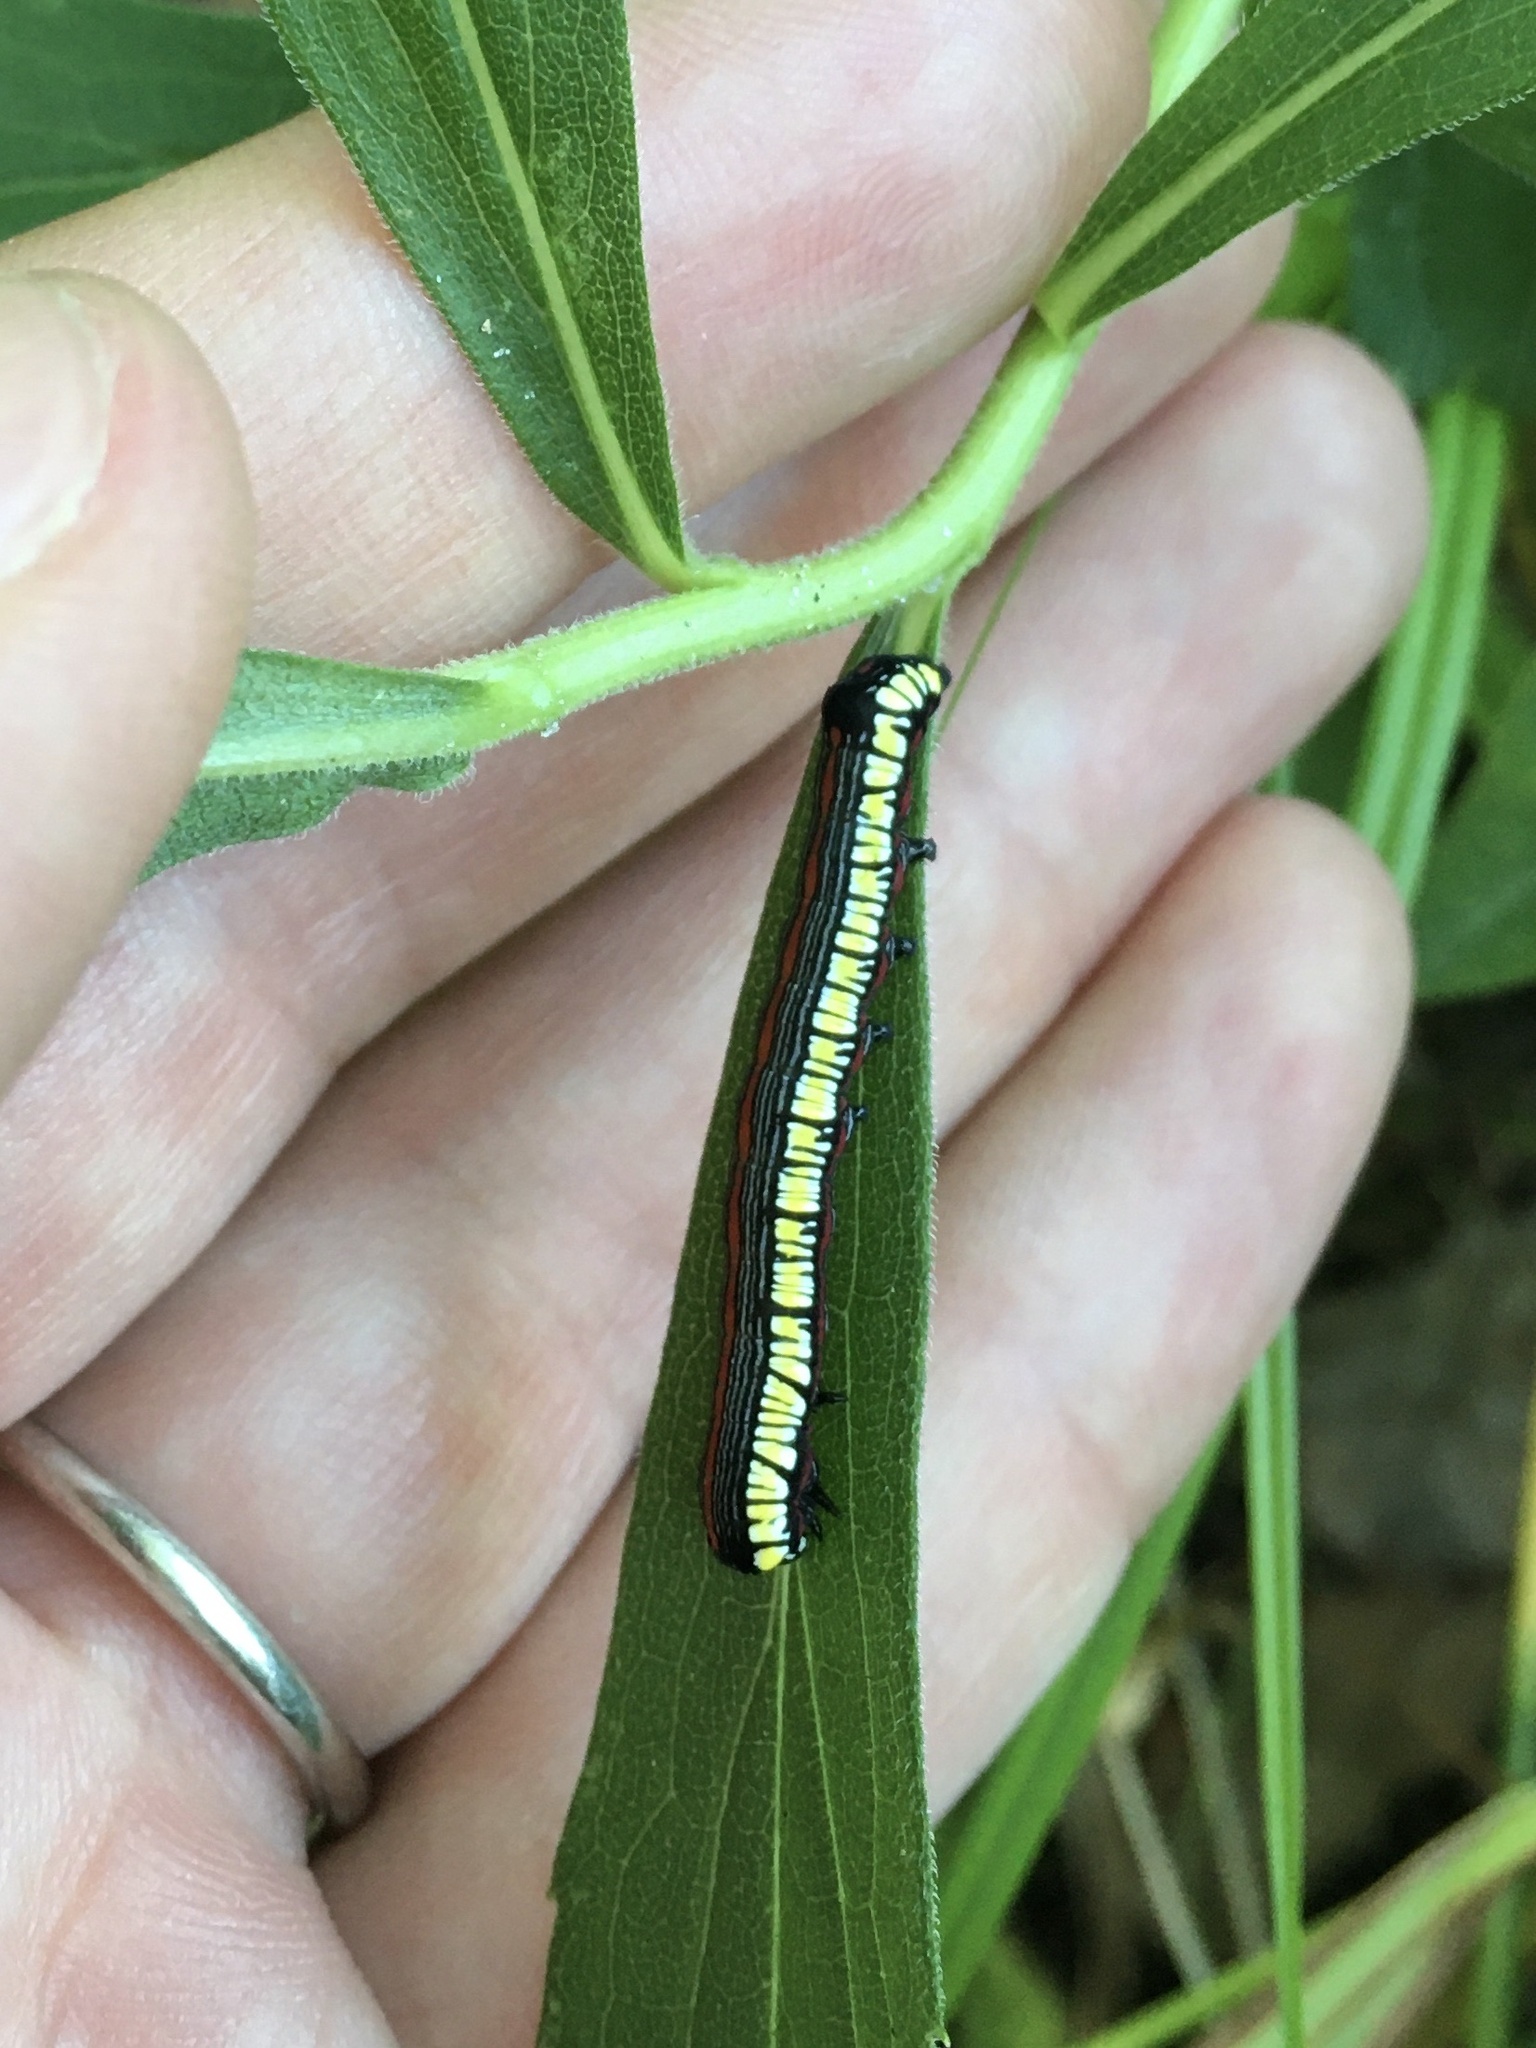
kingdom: Animalia
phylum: Arthropoda
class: Insecta
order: Lepidoptera
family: Noctuidae
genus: Cucullia
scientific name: Cucullia convexipennis
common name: Brown-hooded owlet
